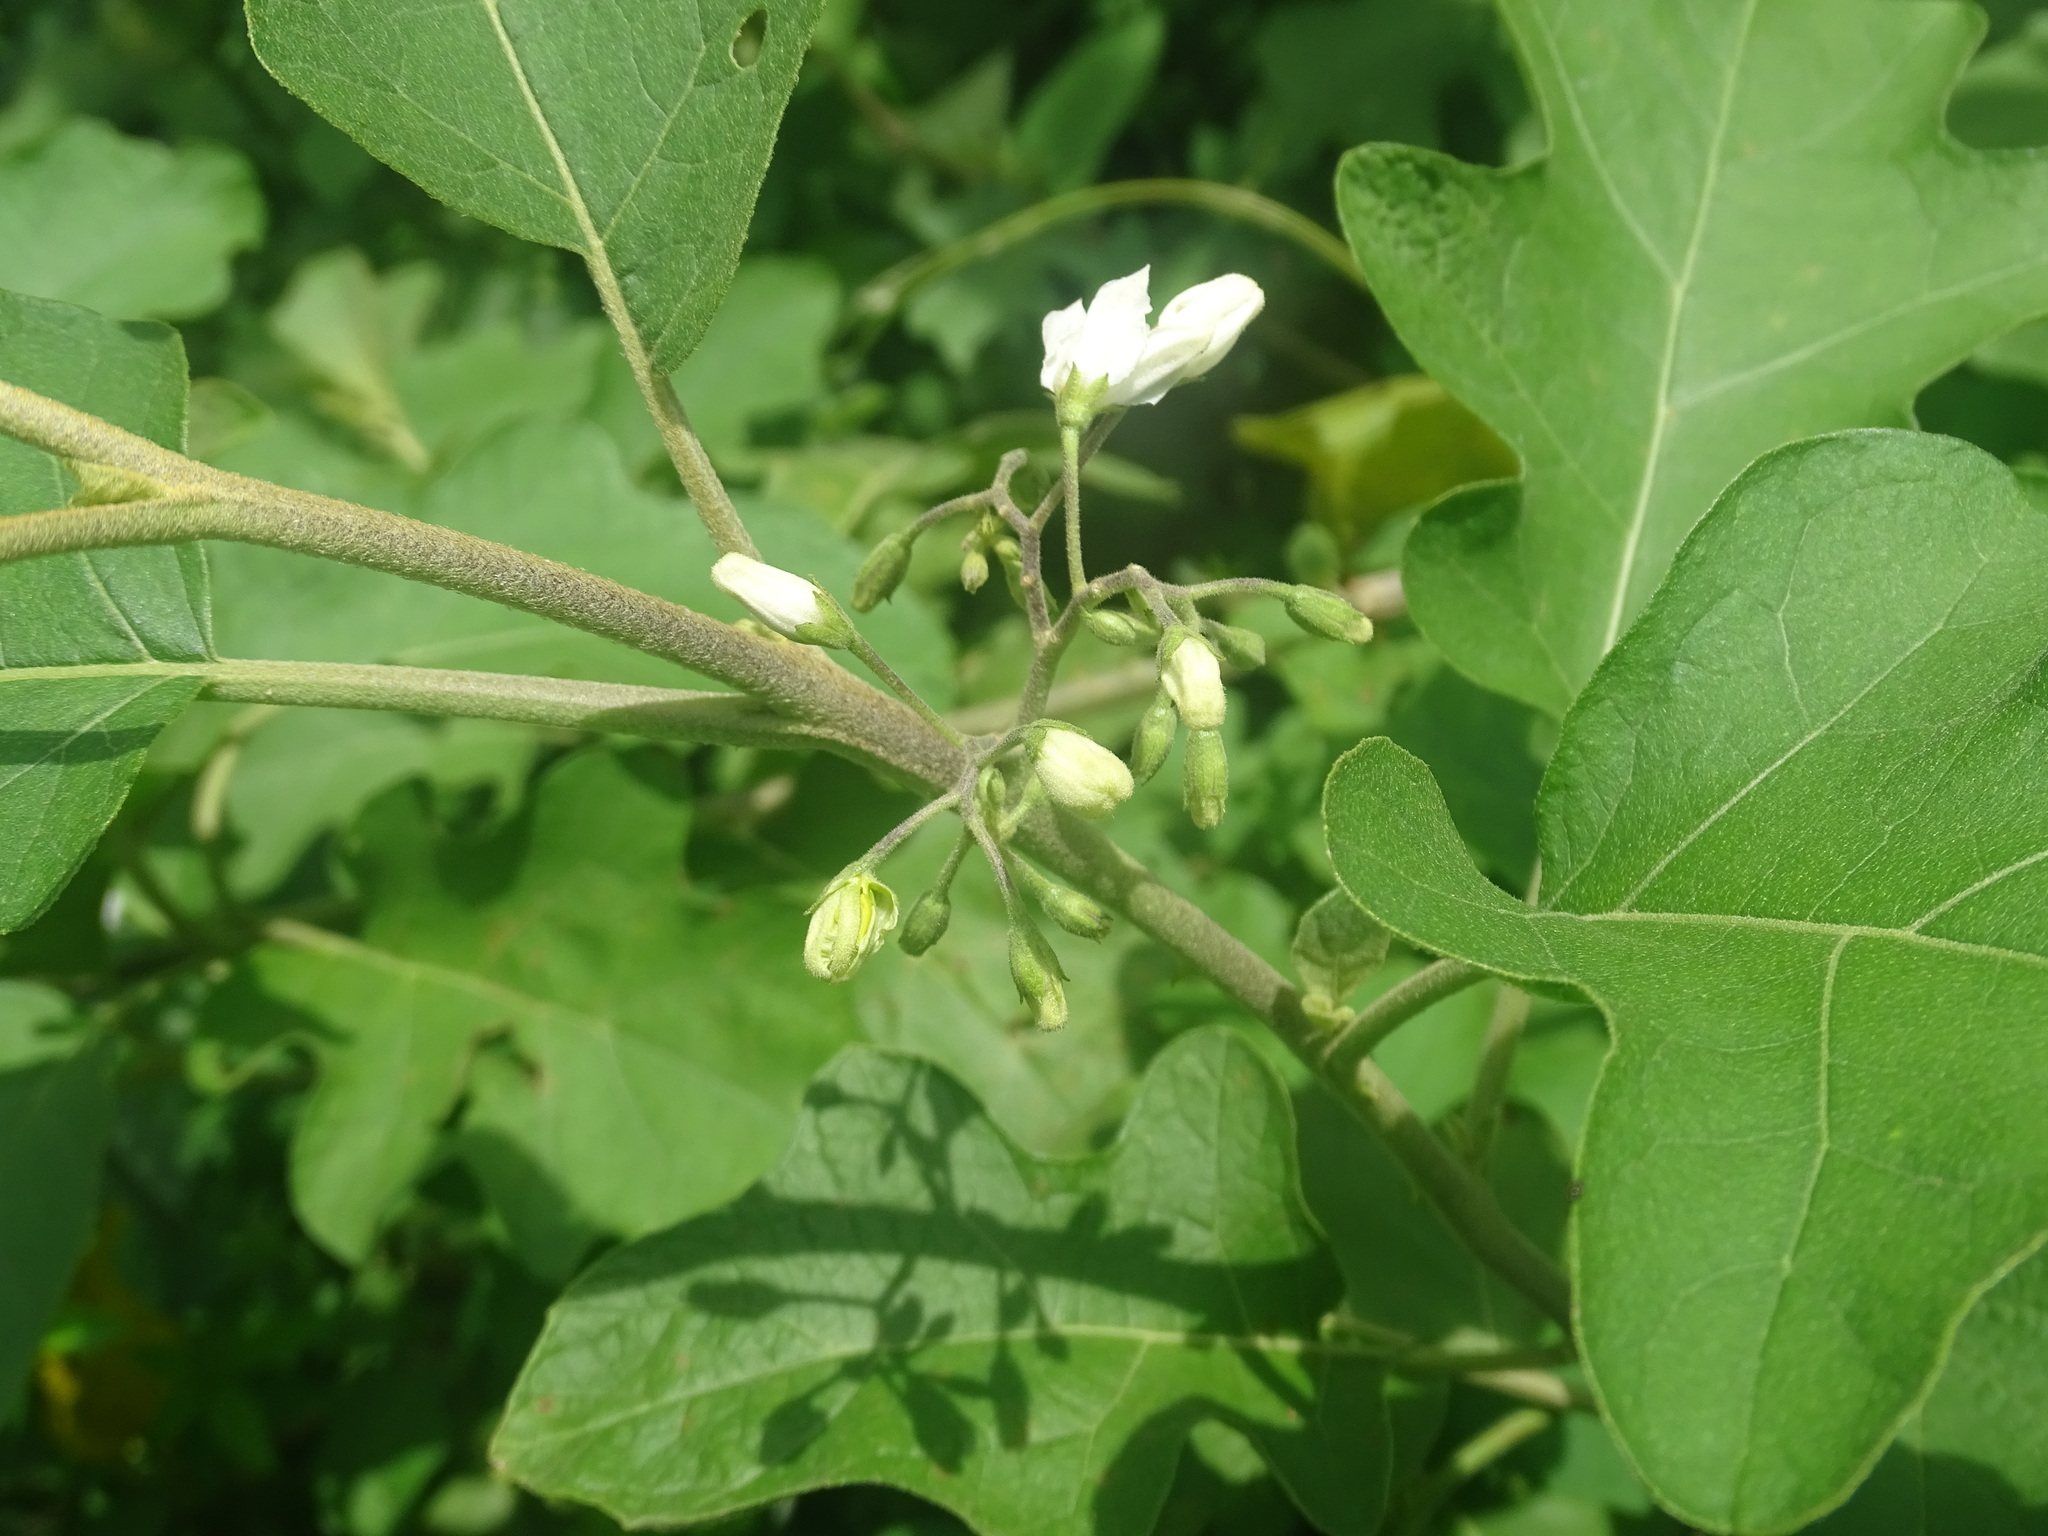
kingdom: Plantae
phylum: Tracheophyta
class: Magnoliopsida
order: Solanales
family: Solanaceae
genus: Solanum
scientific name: Solanum torvum
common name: Turkey berry
